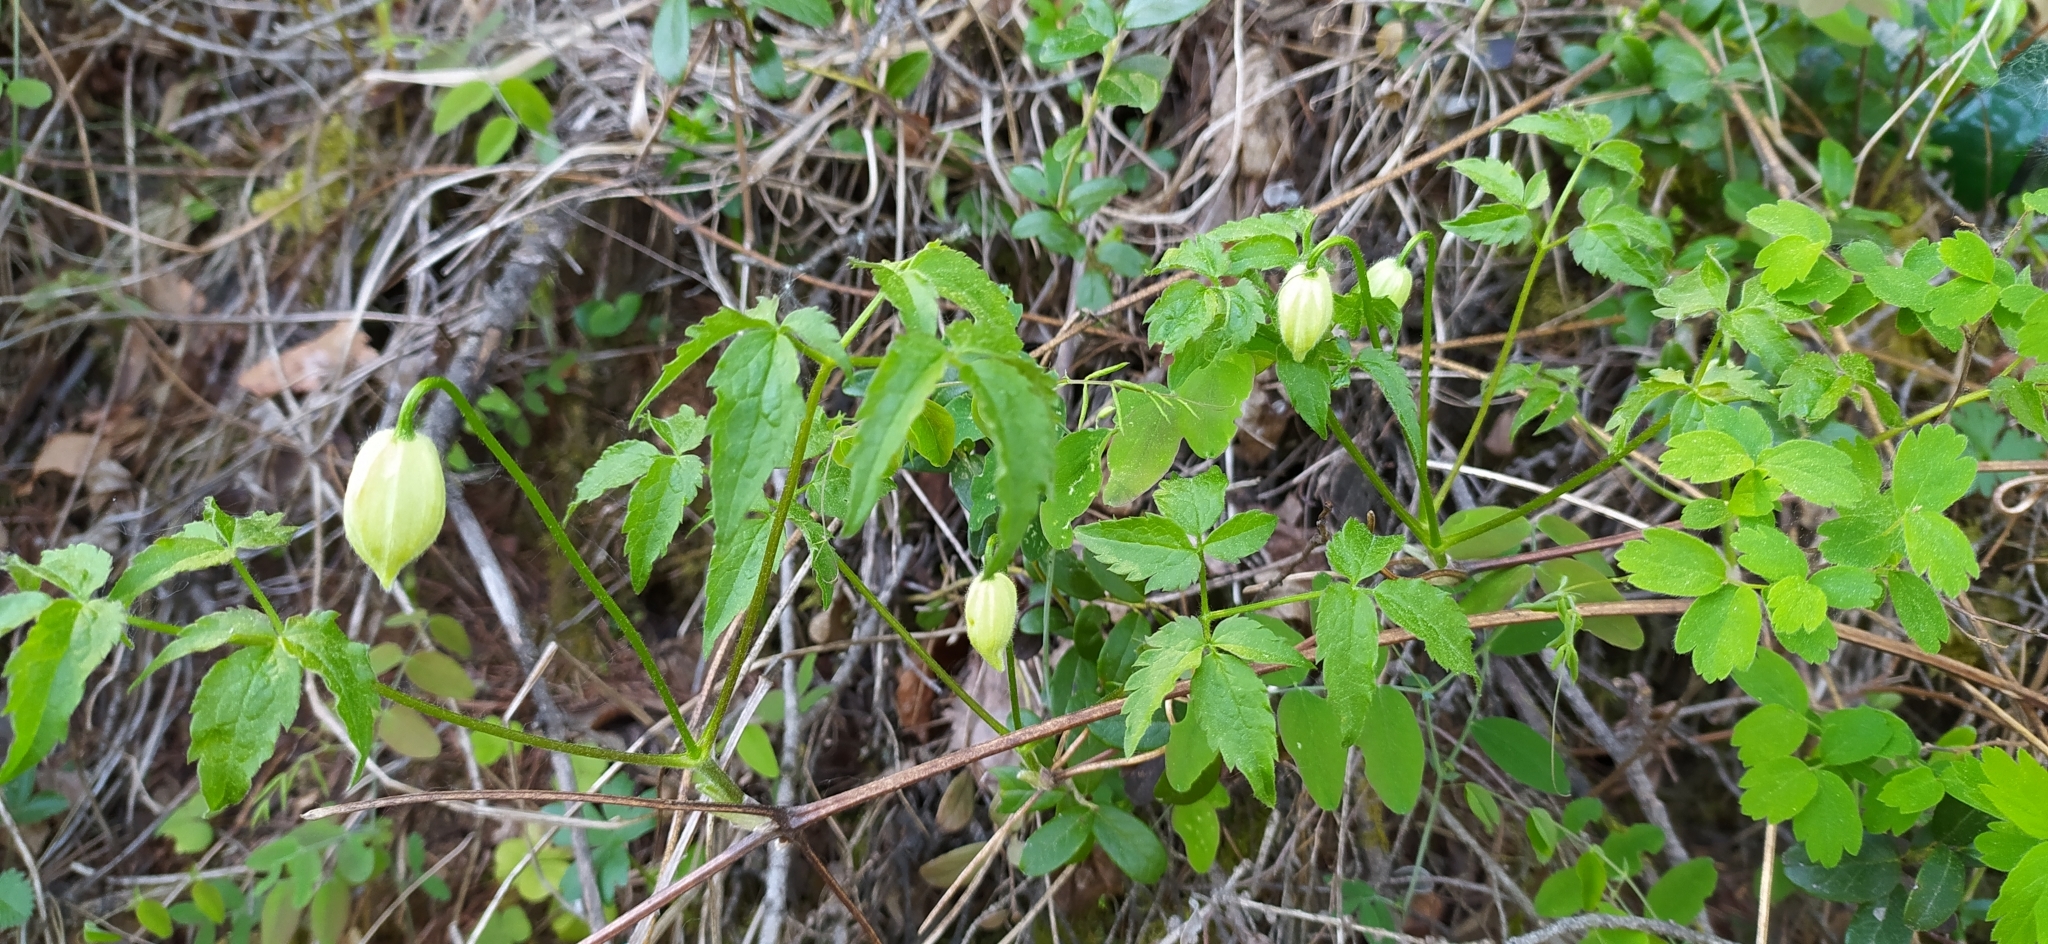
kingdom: Plantae
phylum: Tracheophyta
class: Magnoliopsida
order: Ranunculales
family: Ranunculaceae
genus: Clematis
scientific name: Clematis sibirica
